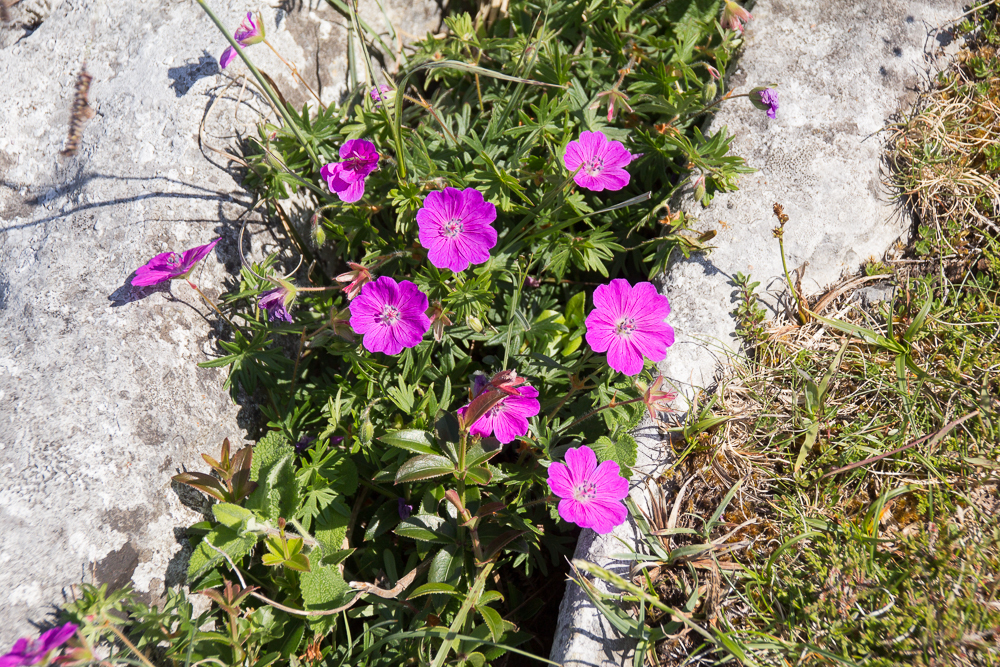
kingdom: Plantae
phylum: Tracheophyta
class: Magnoliopsida
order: Geraniales
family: Geraniaceae
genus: Geranium
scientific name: Geranium sanguineum
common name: Bloody crane's-bill
